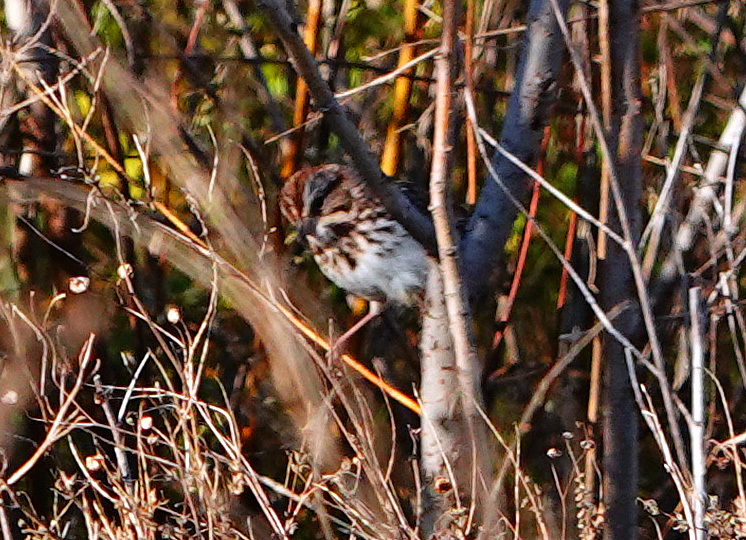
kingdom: Animalia
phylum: Chordata
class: Aves
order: Passeriformes
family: Passerellidae
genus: Melospiza
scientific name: Melospiza melodia
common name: Song sparrow
